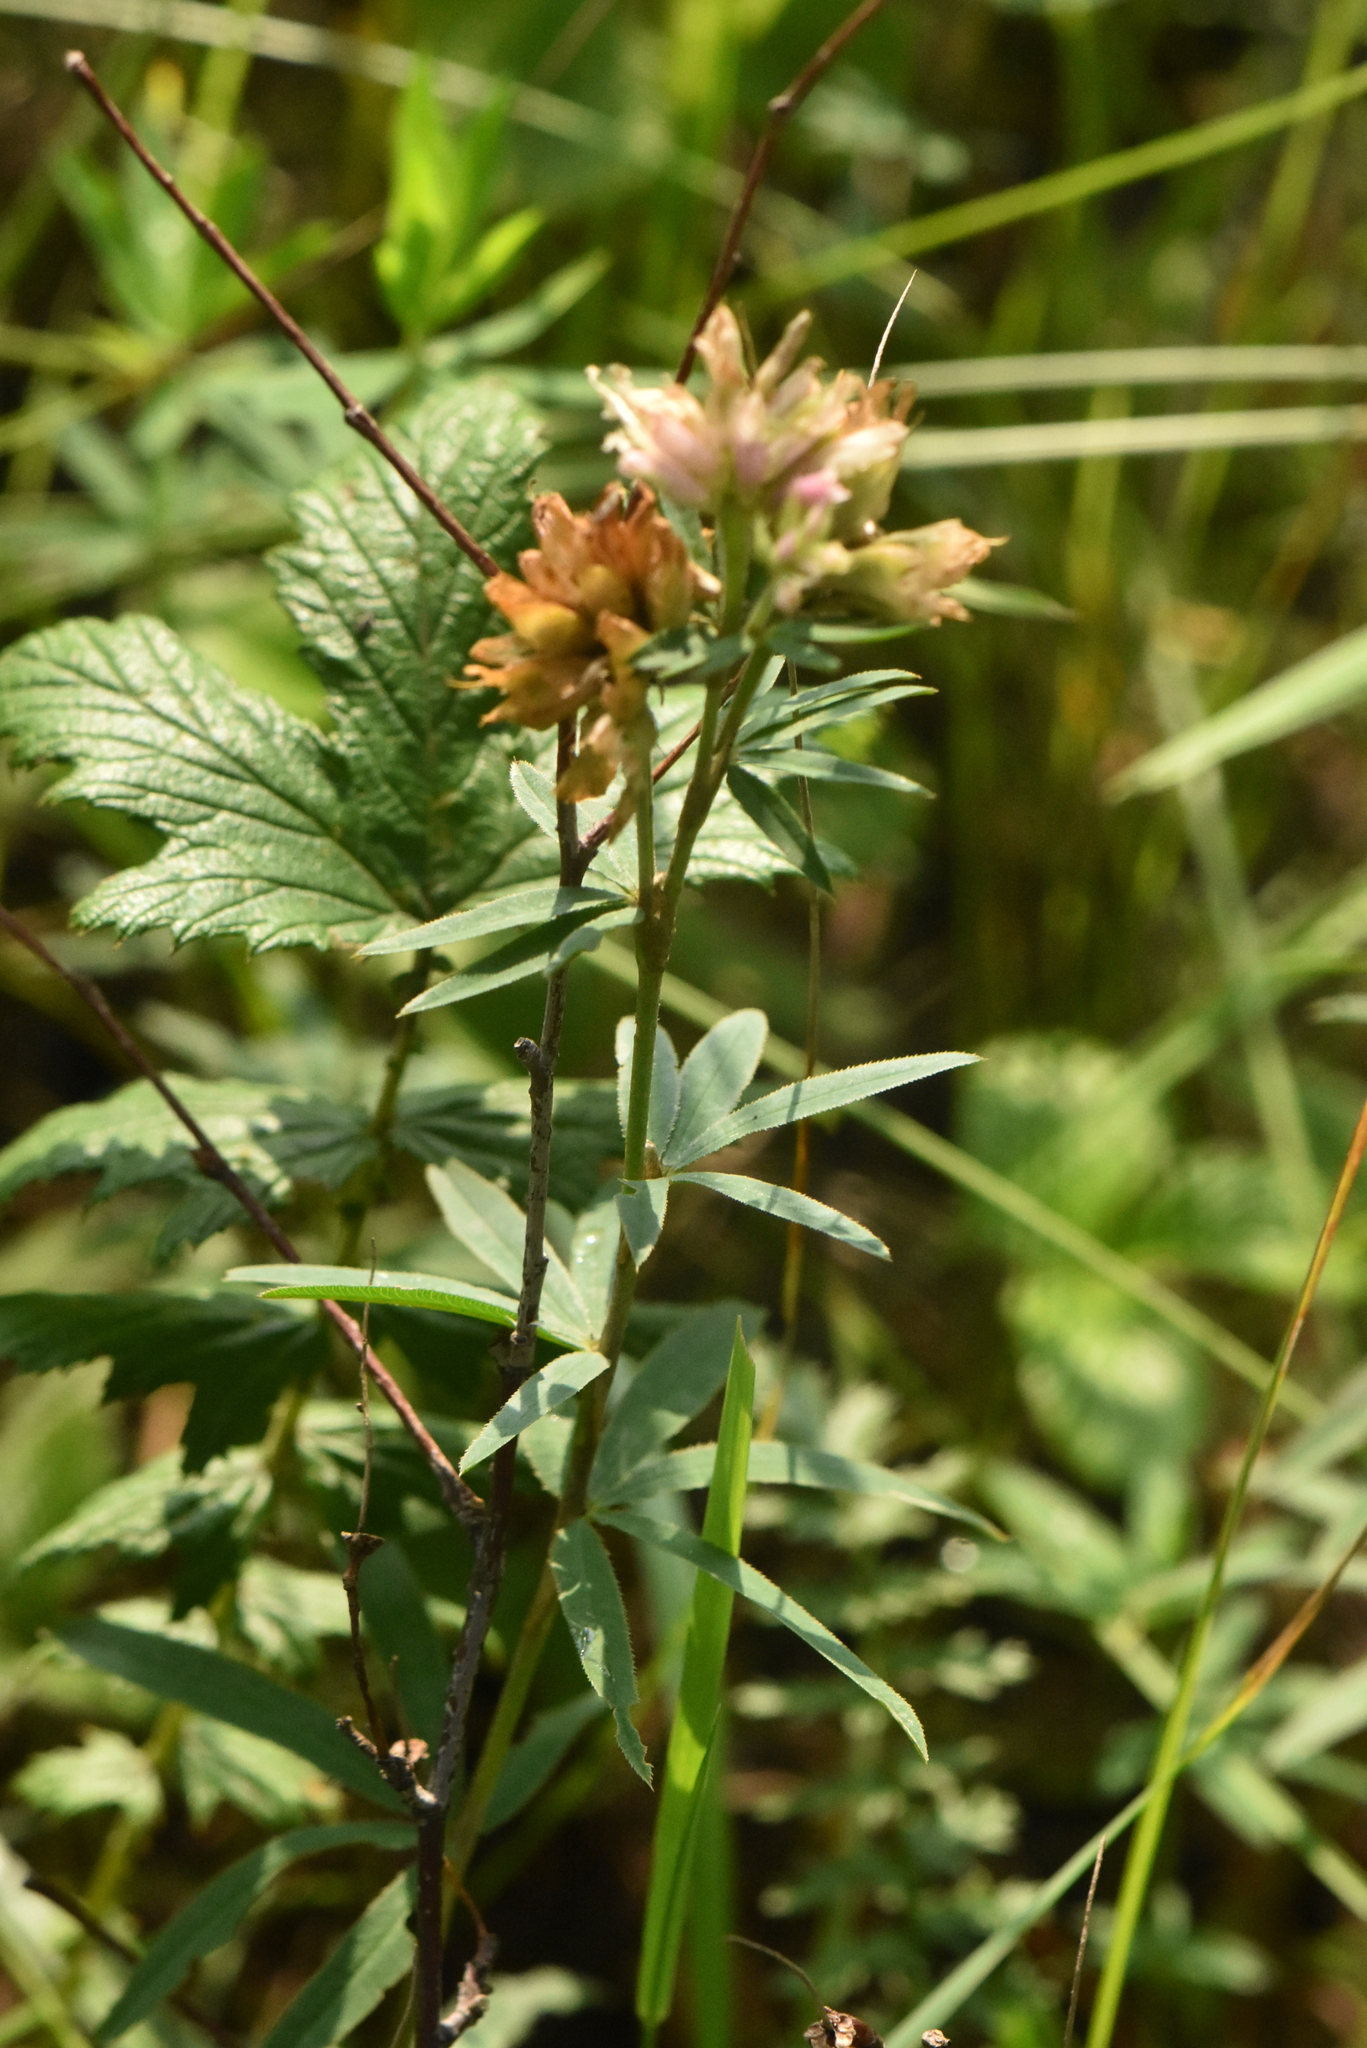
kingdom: Plantae
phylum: Tracheophyta
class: Magnoliopsida
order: Fabales
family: Fabaceae
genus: Trifolium
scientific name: Trifolium lupinaster
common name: Lupine clover
